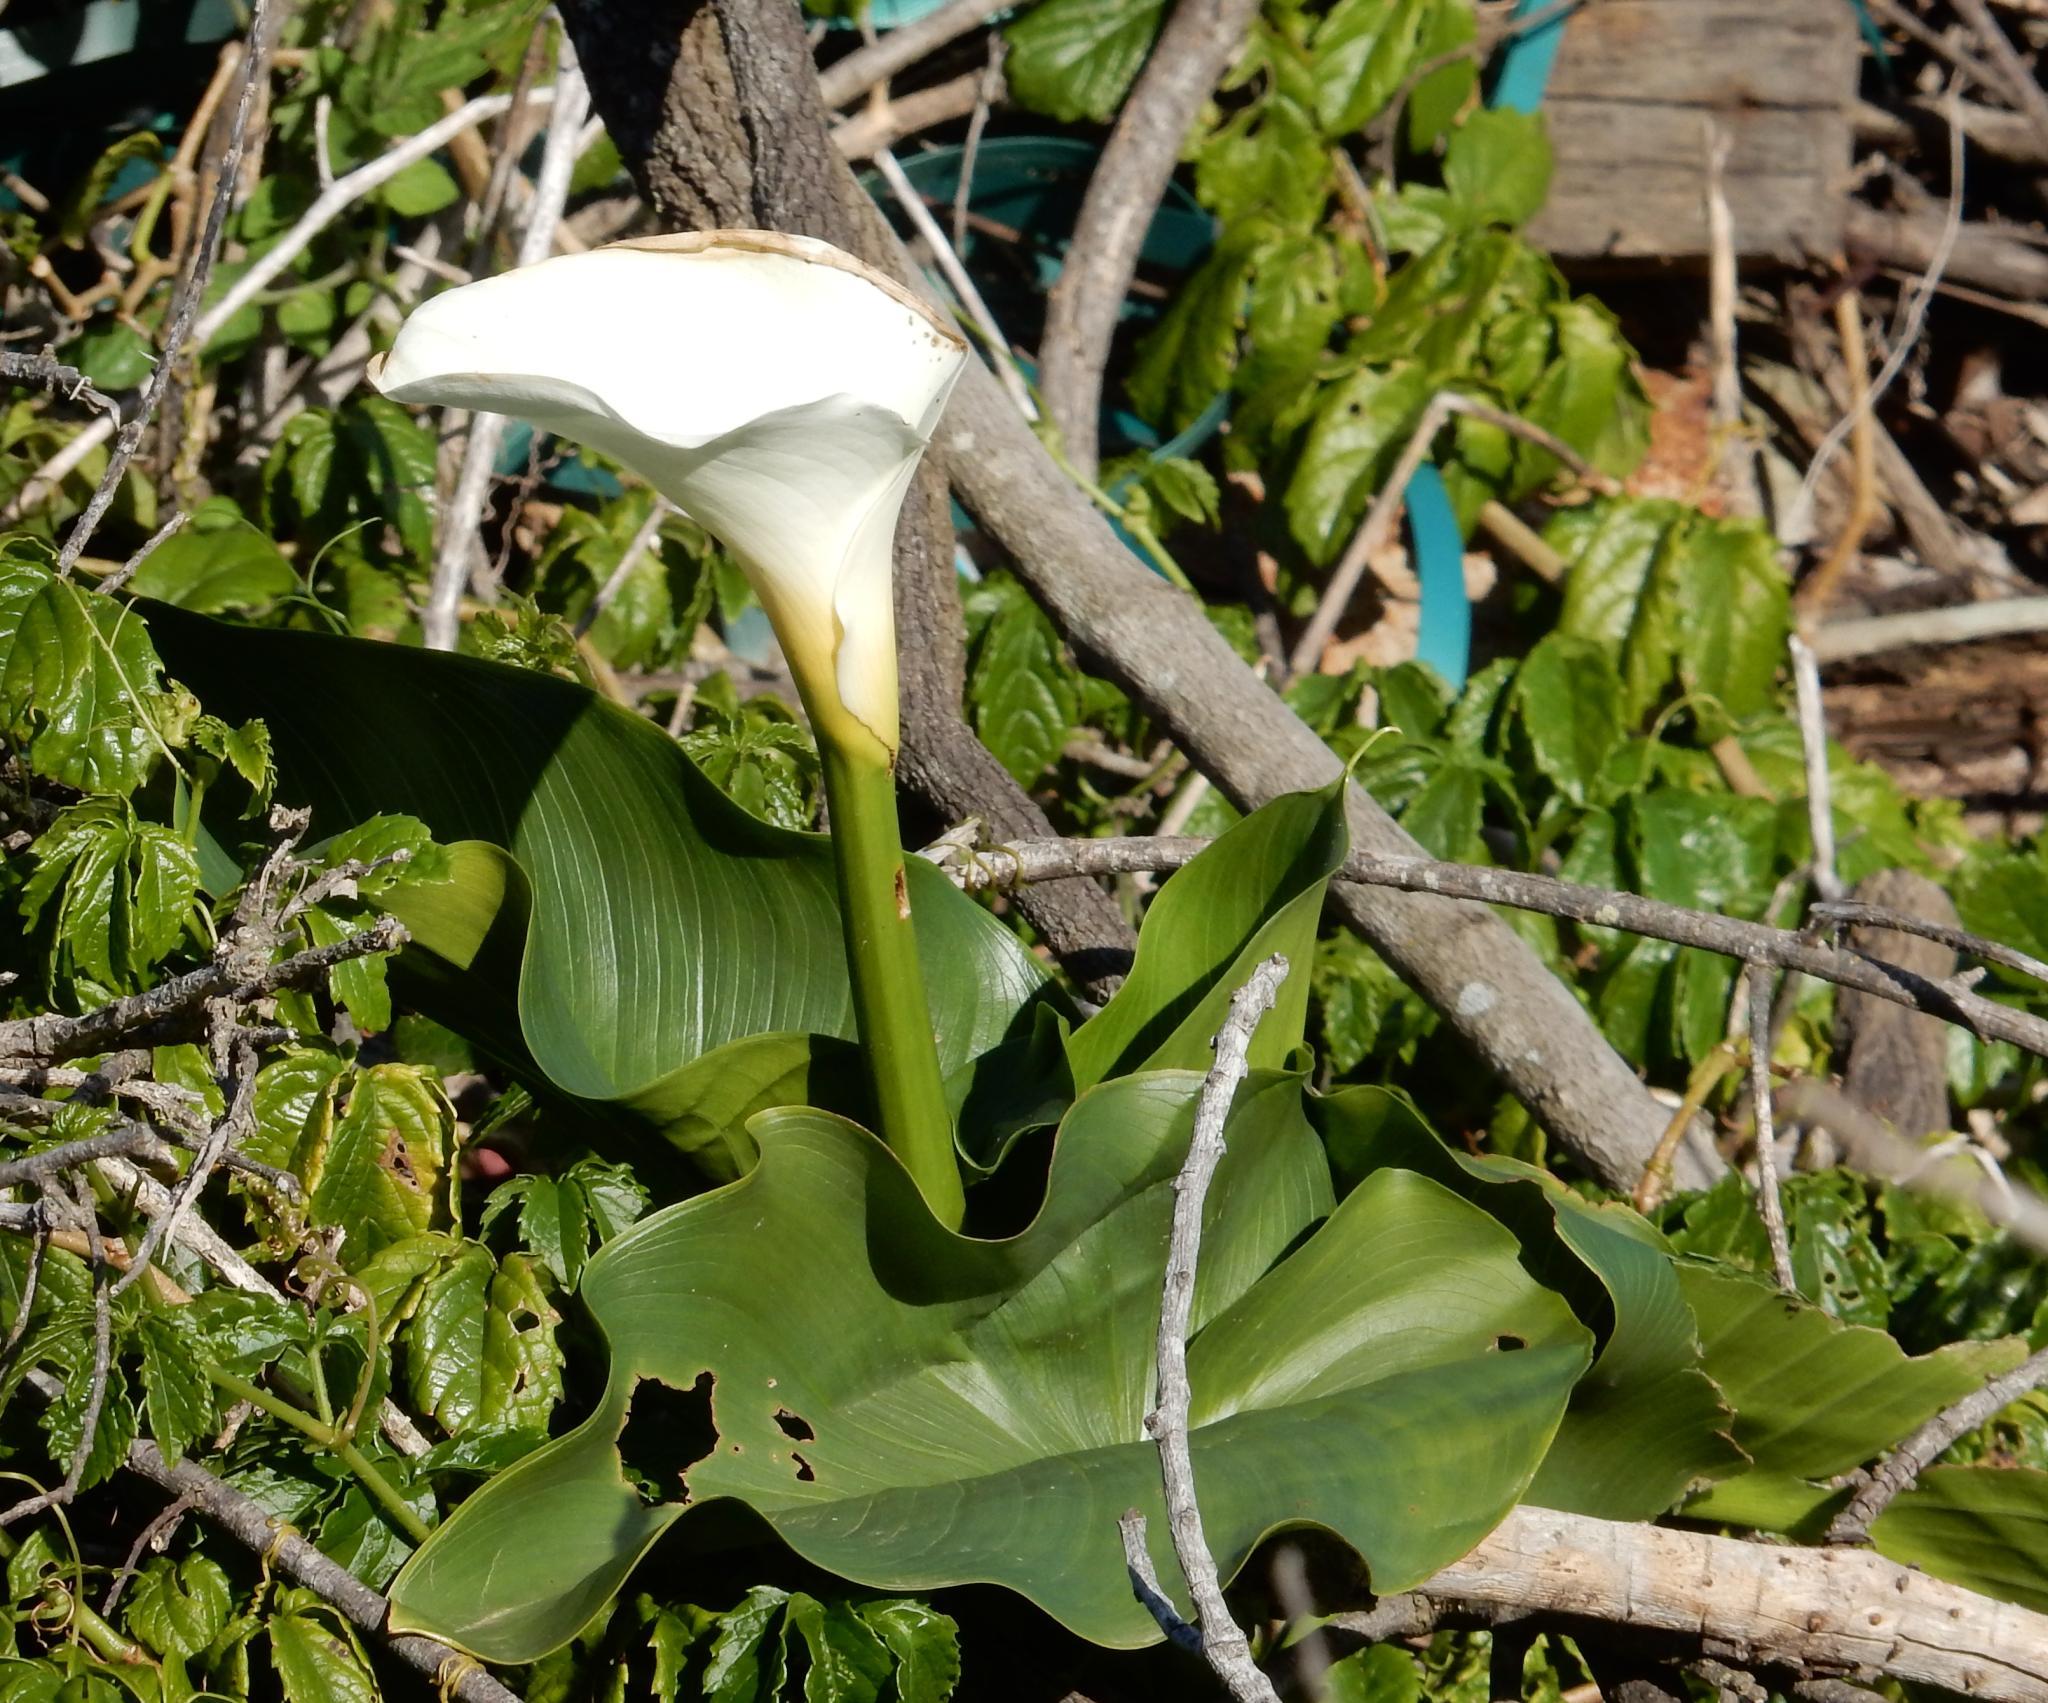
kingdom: Plantae
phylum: Tracheophyta
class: Liliopsida
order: Alismatales
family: Araceae
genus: Zantedeschia
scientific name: Zantedeschia aethiopica
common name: Altar-lily
